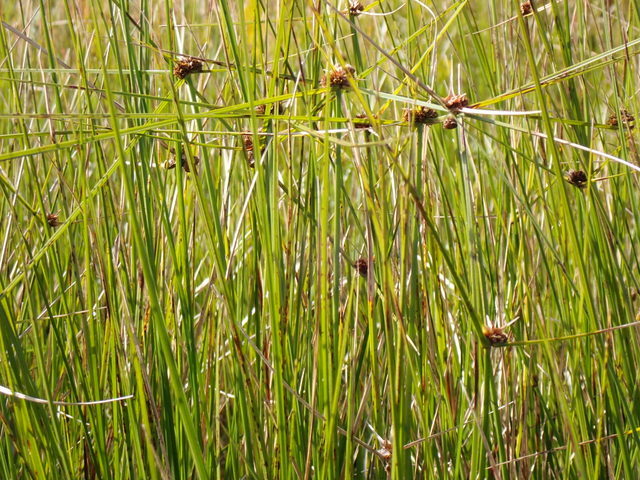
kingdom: Plantae
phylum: Tracheophyta
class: Liliopsida
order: Poales
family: Cyperaceae
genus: Cyperus
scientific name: Cyperus blepharoleptos
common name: Cuban bulrush
